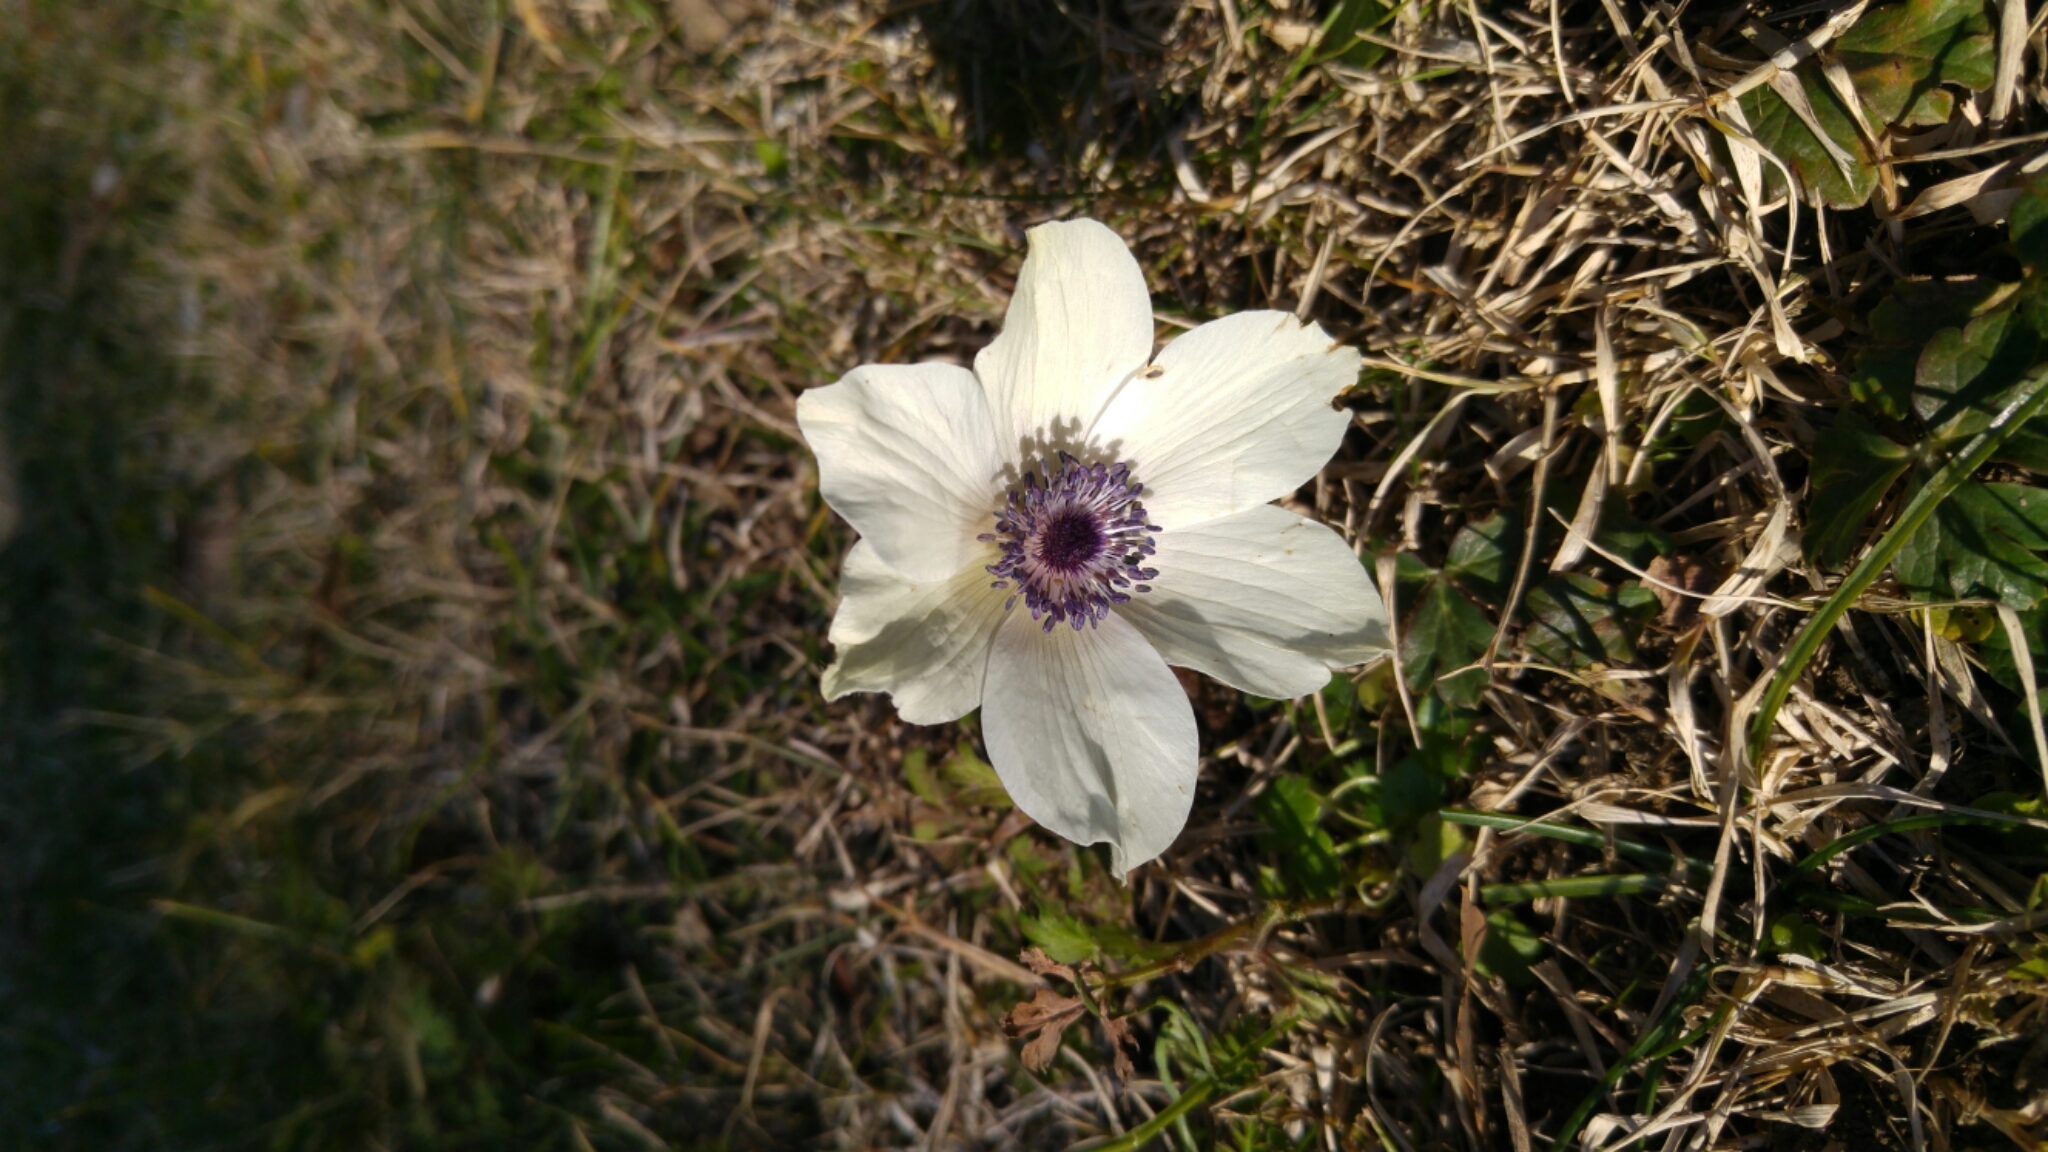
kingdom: Plantae
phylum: Tracheophyta
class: Magnoliopsida
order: Ranunculales
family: Ranunculaceae
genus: Anemone
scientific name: Anemone coronaria
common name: Poppy anemone
